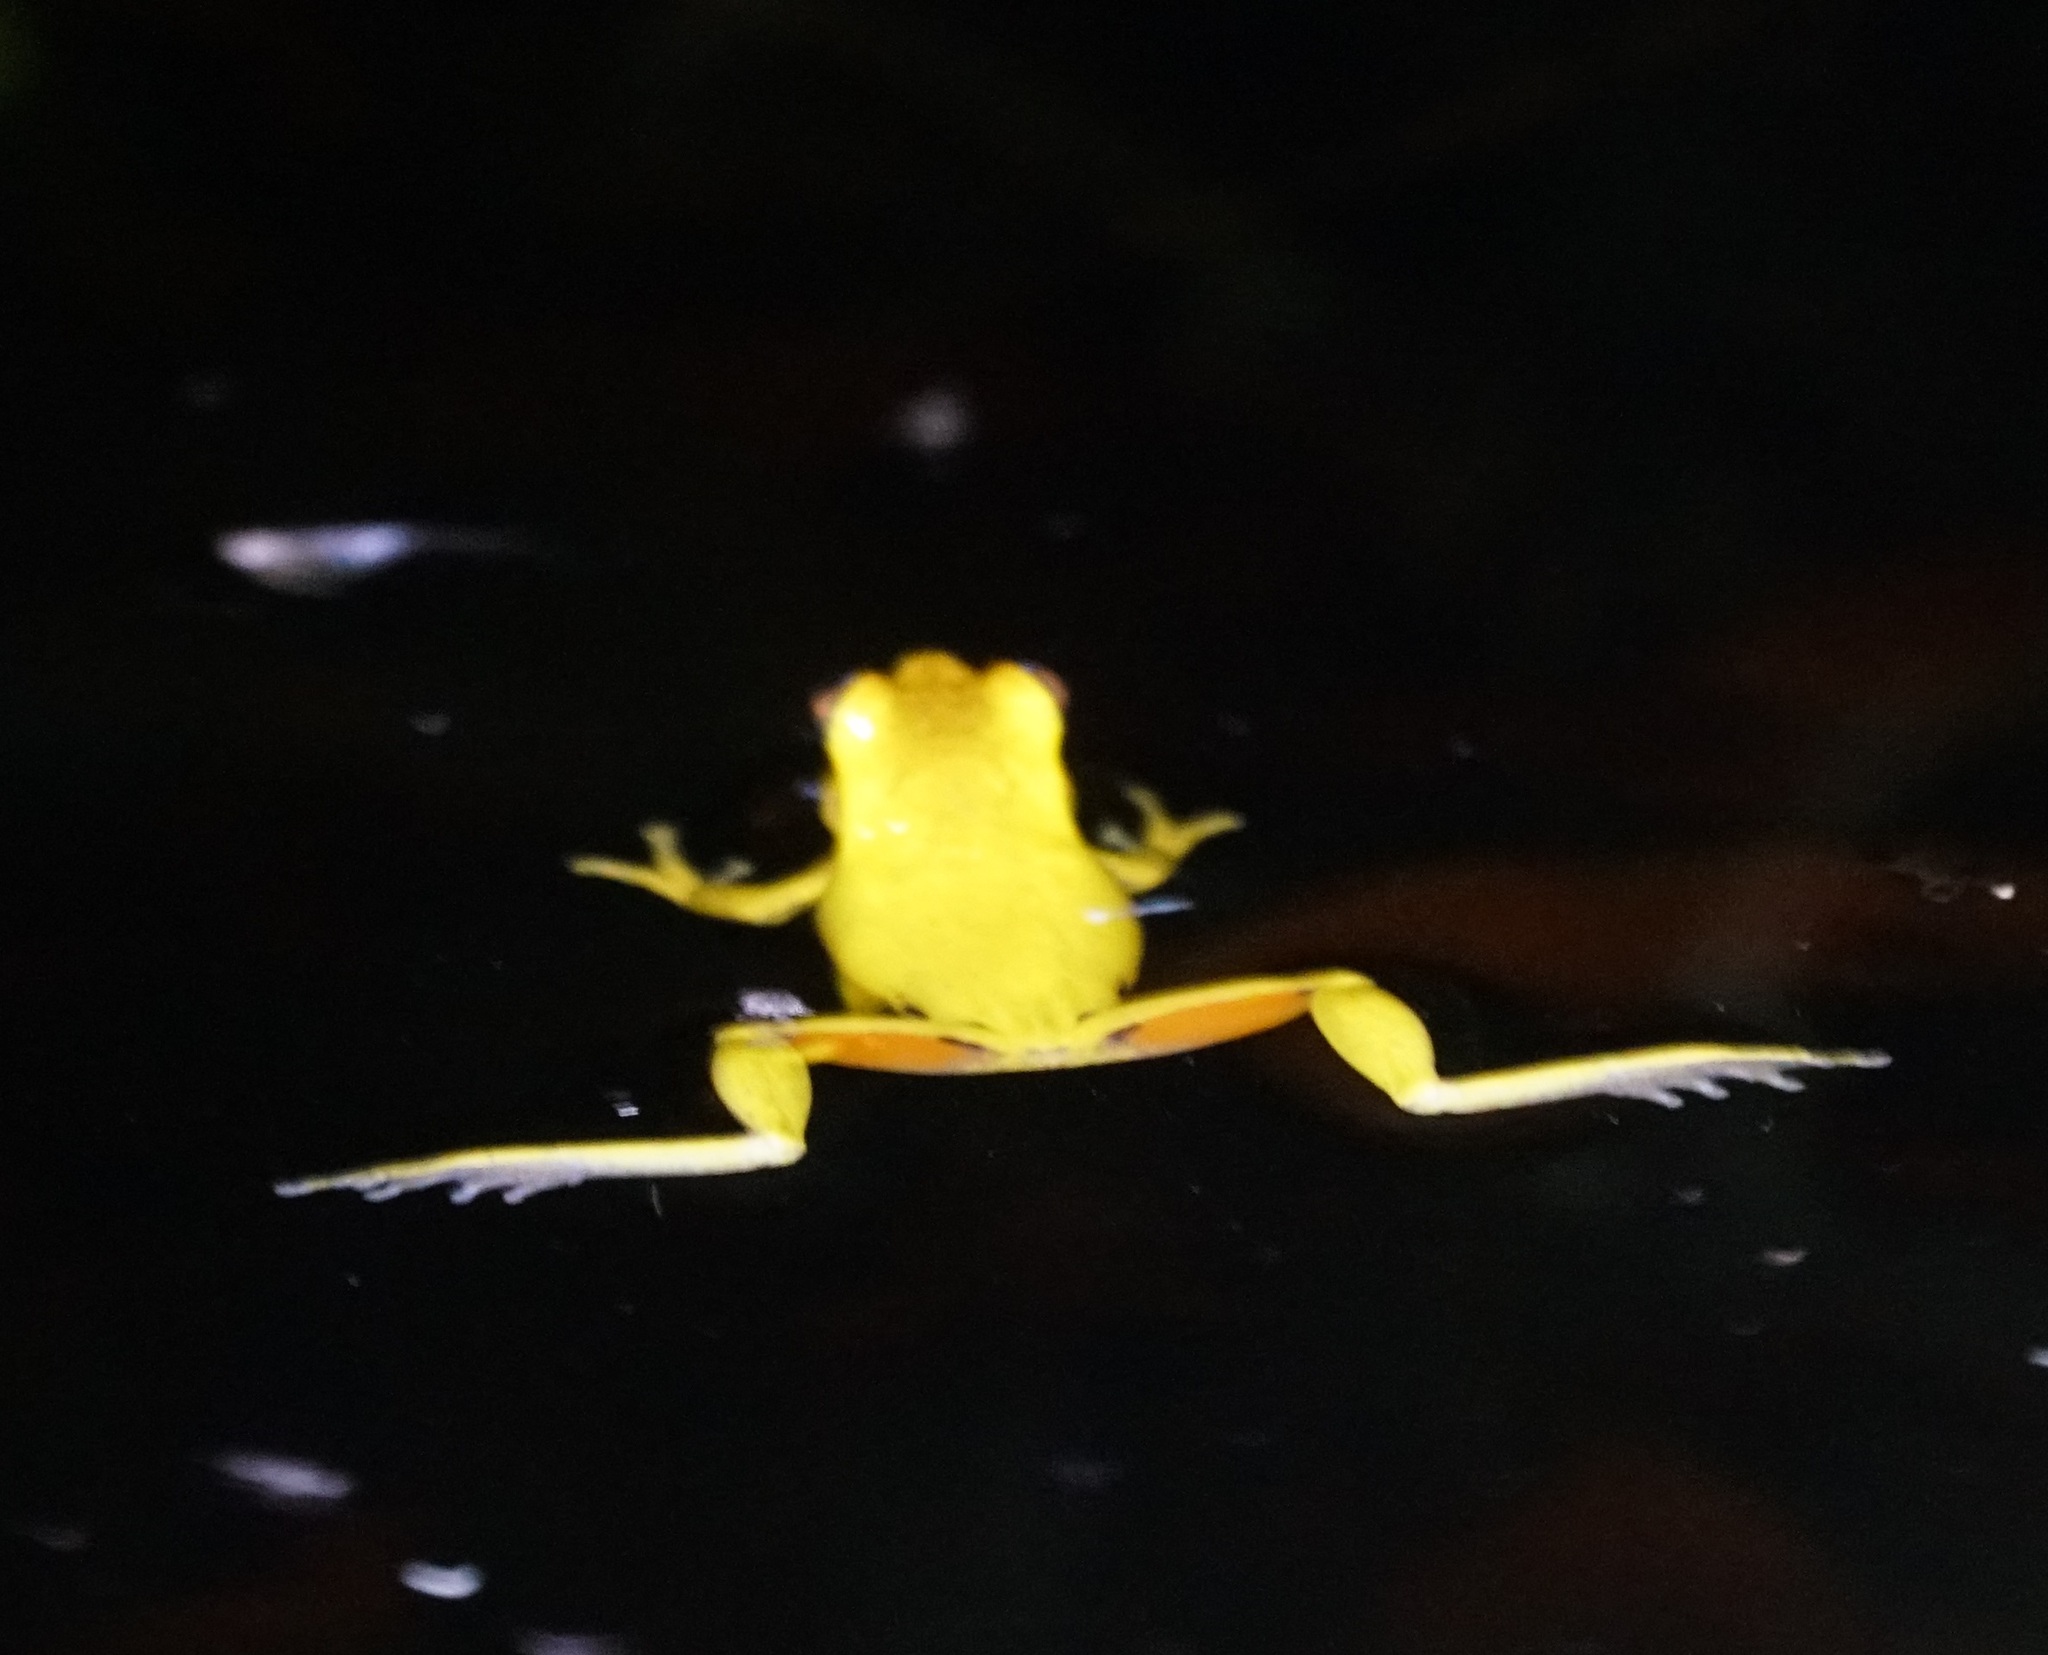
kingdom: Animalia
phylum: Chordata
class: Amphibia
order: Anura
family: Pelodryadidae
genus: Litoria
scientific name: Litoria revelata
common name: Orange-thighed treefrog
